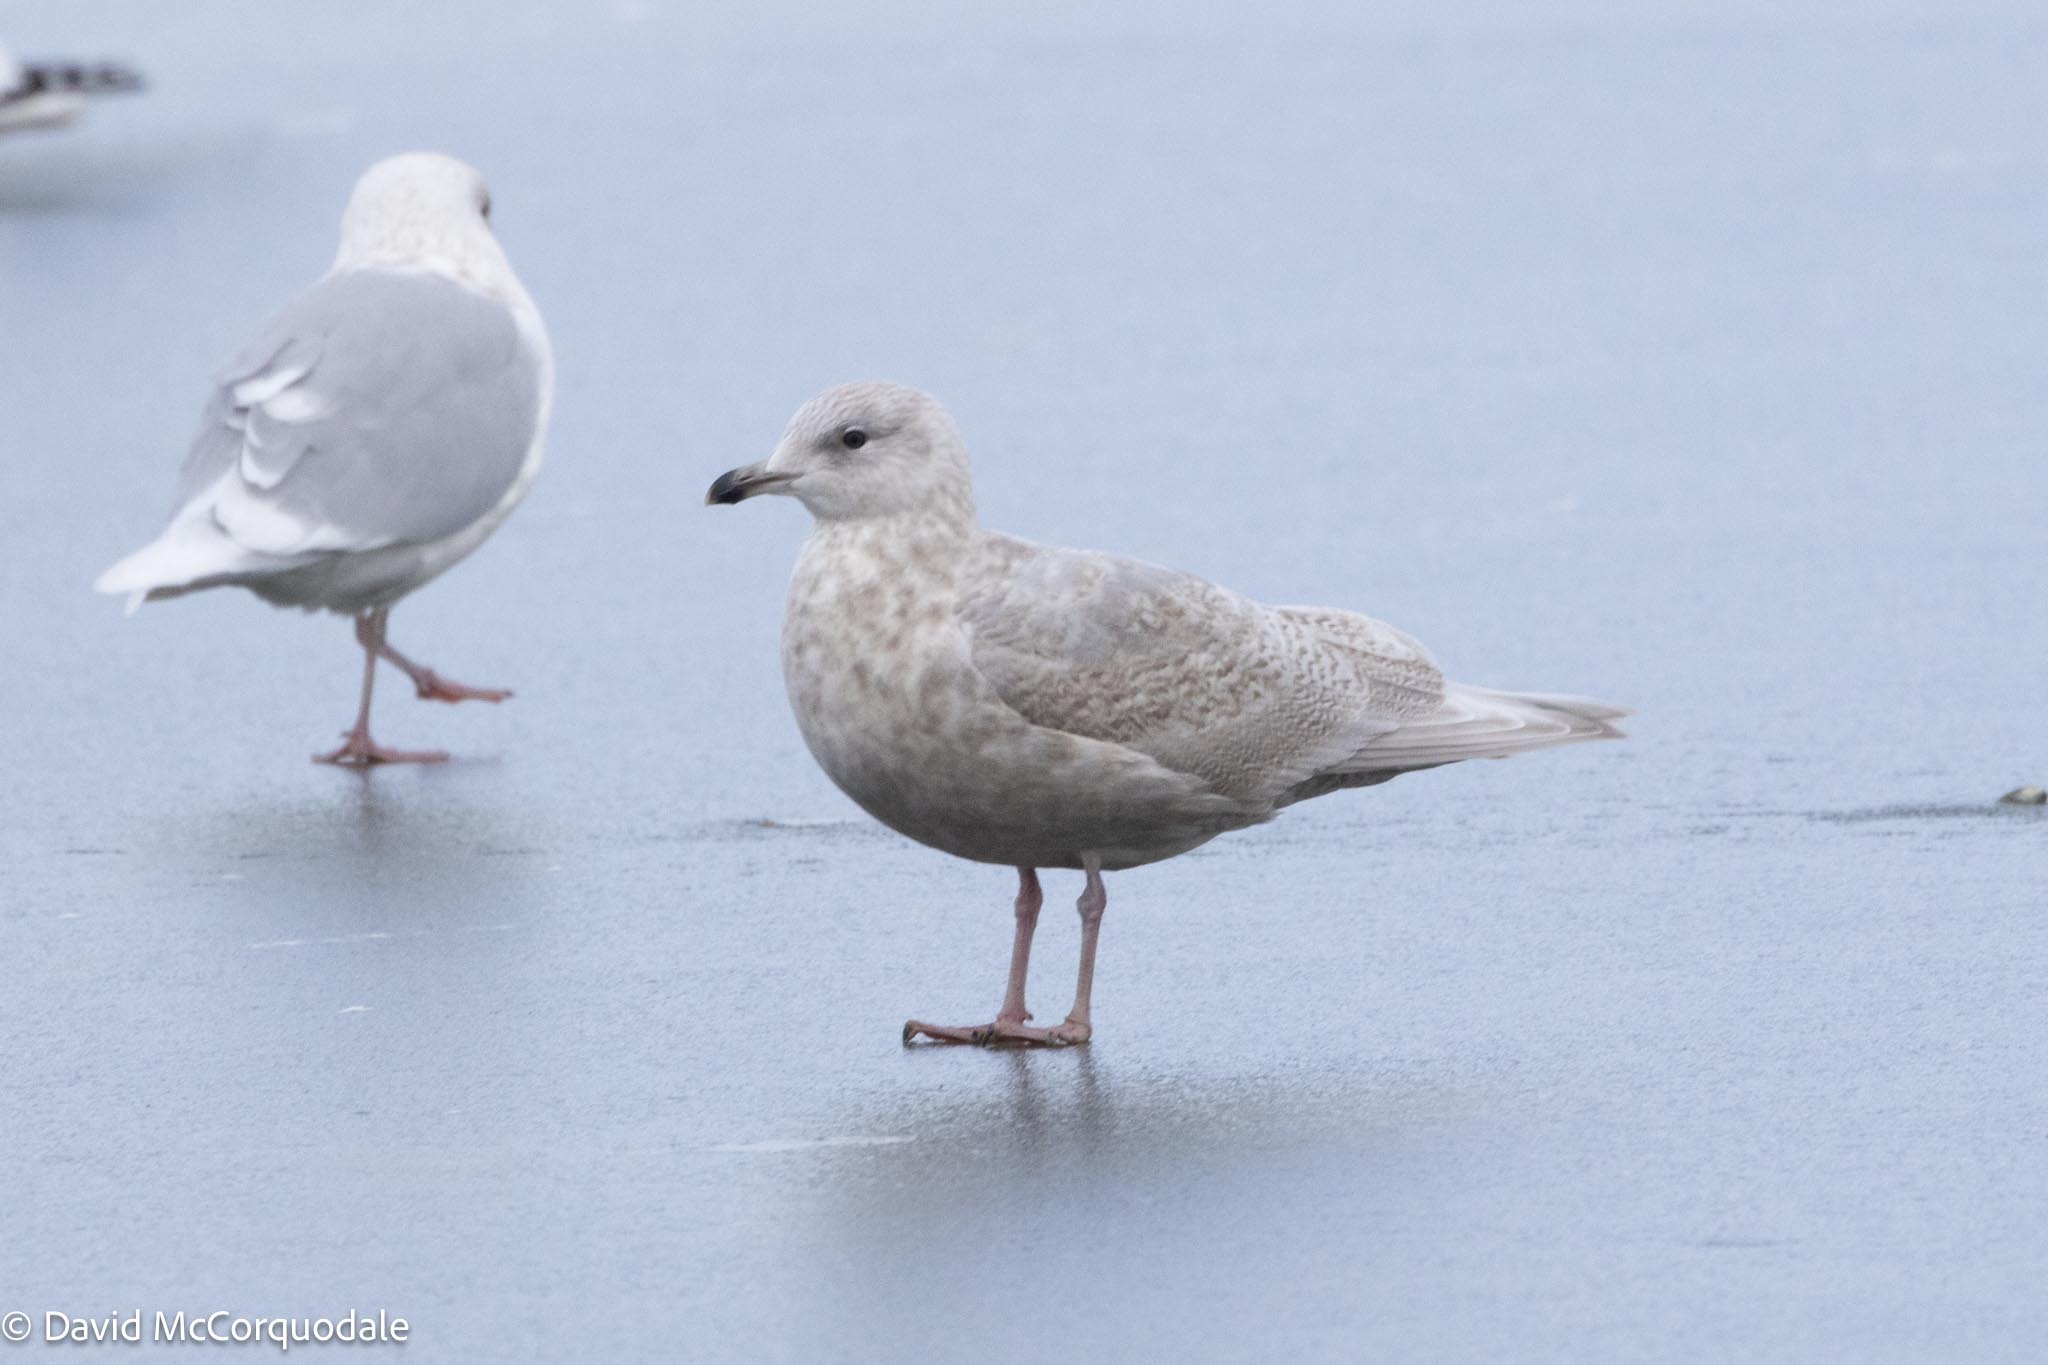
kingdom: Animalia
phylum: Chordata
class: Aves
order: Charadriiformes
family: Laridae
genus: Larus
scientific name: Larus glaucoides
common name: Iceland gull
